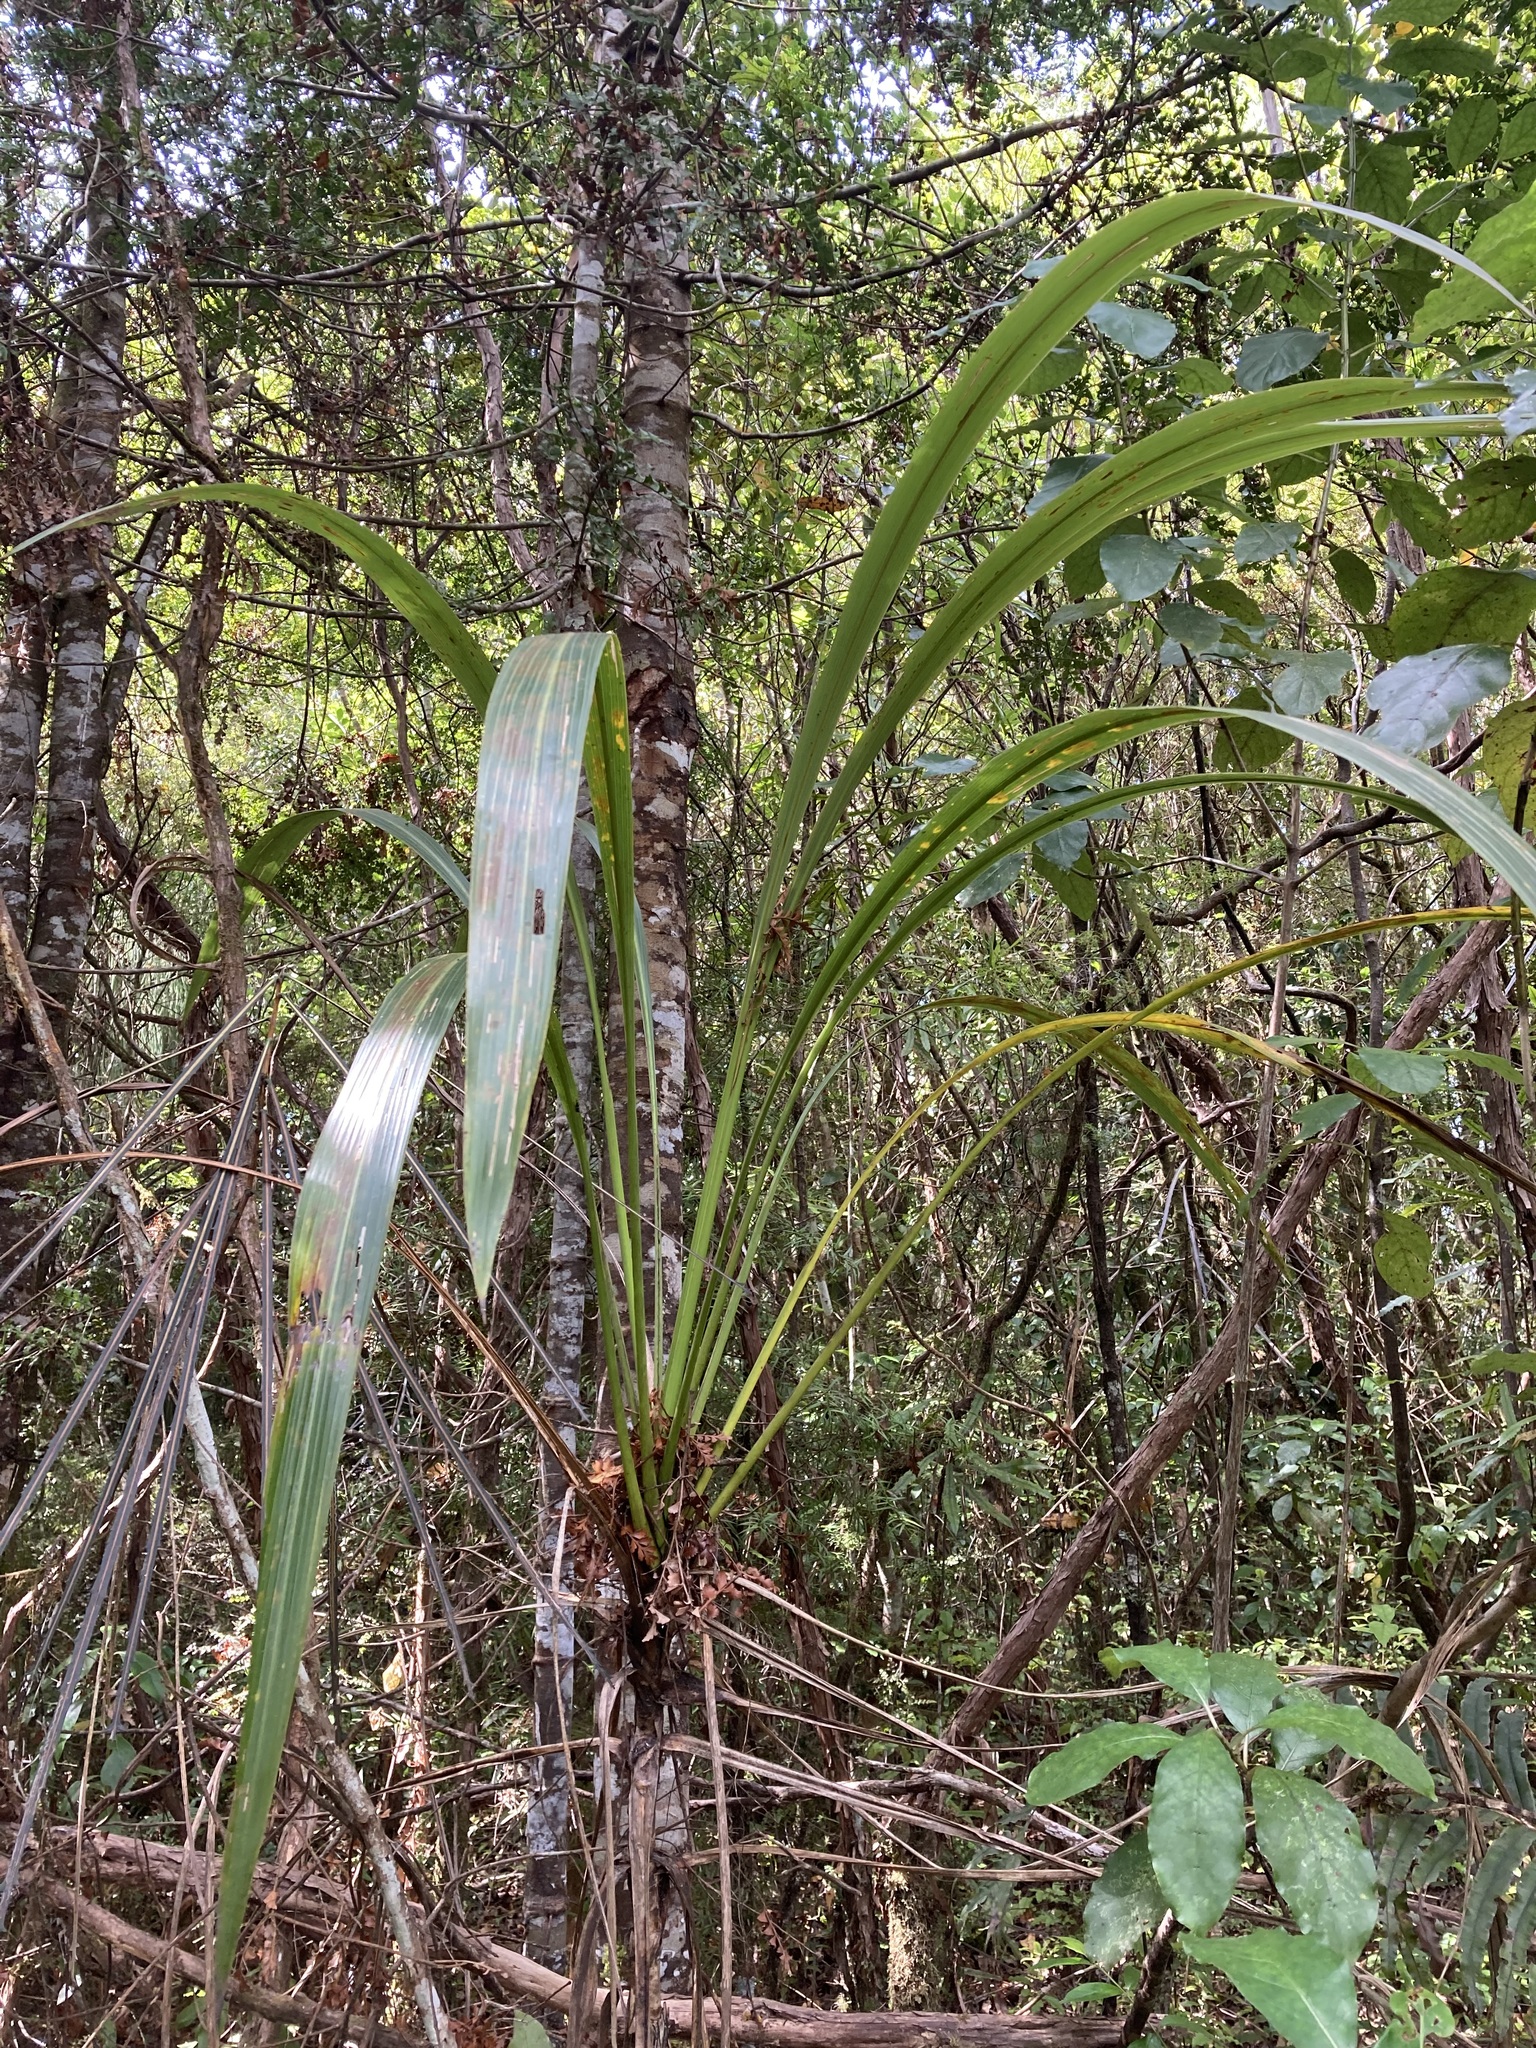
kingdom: Plantae
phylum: Tracheophyta
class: Liliopsida
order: Asparagales
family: Asparagaceae
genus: Cordyline
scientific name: Cordyline banksii
